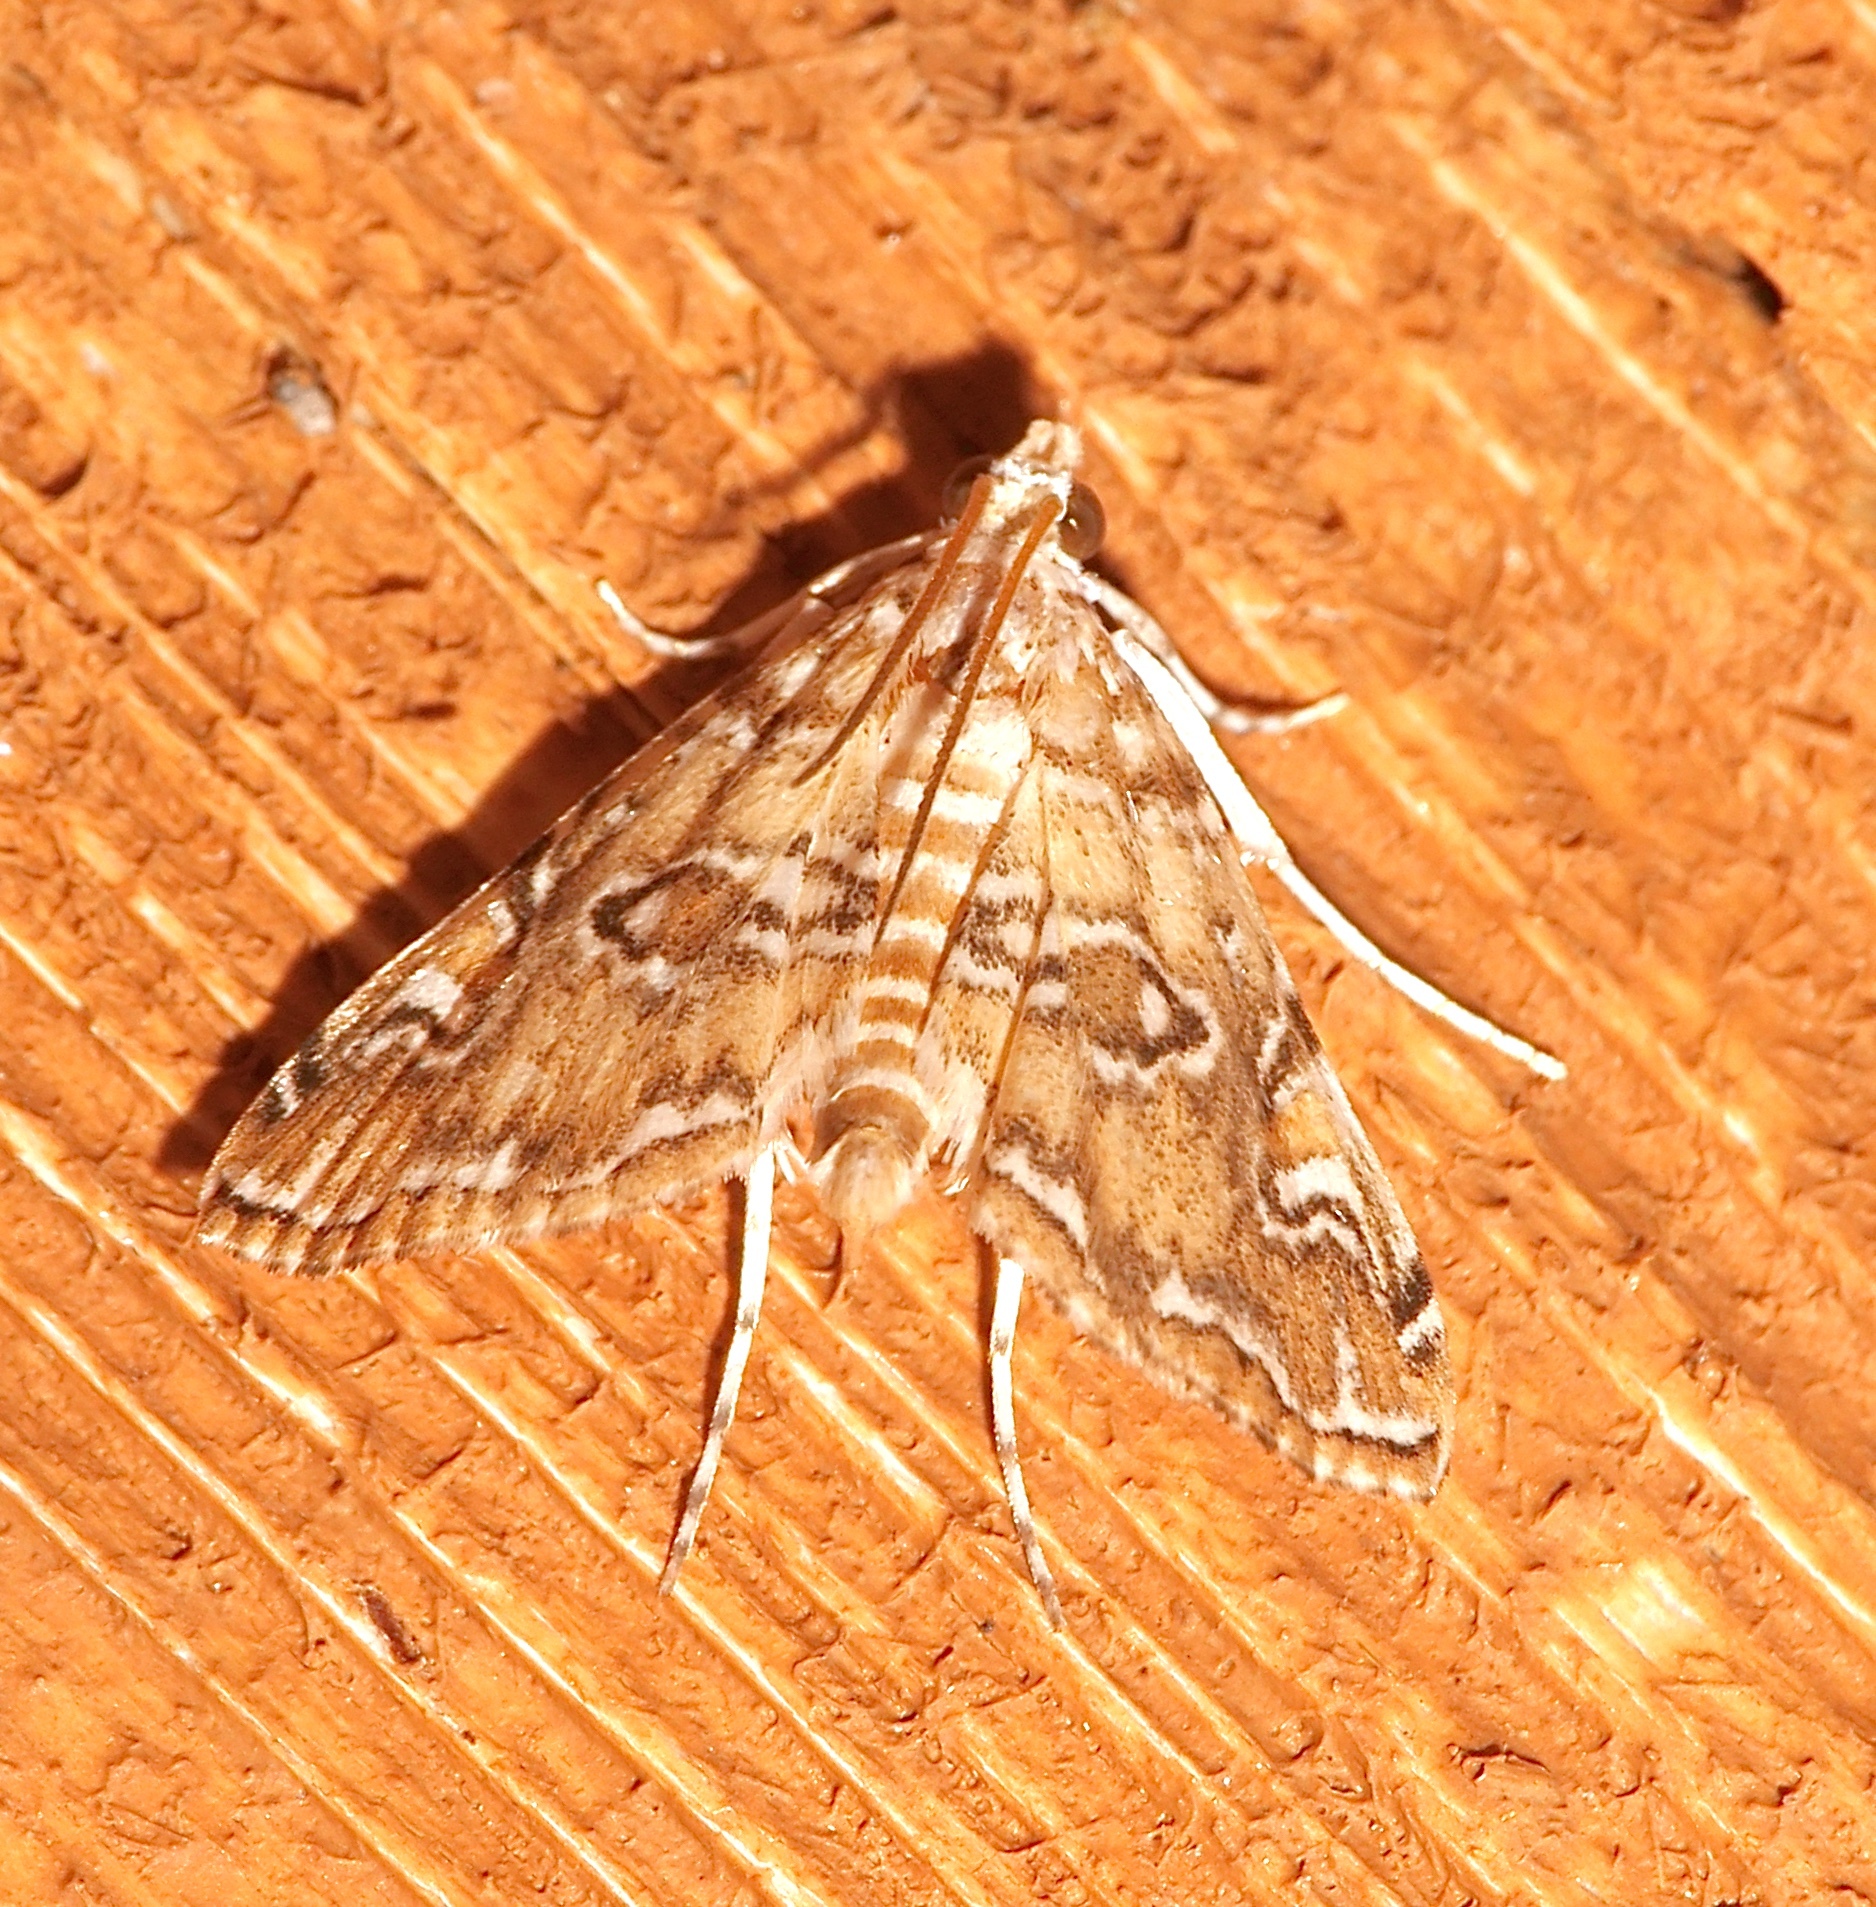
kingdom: Animalia
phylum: Arthropoda
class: Insecta
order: Lepidoptera
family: Crambidae
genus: Elophila
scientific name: Elophila gyralis
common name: Waterlily borer moth
